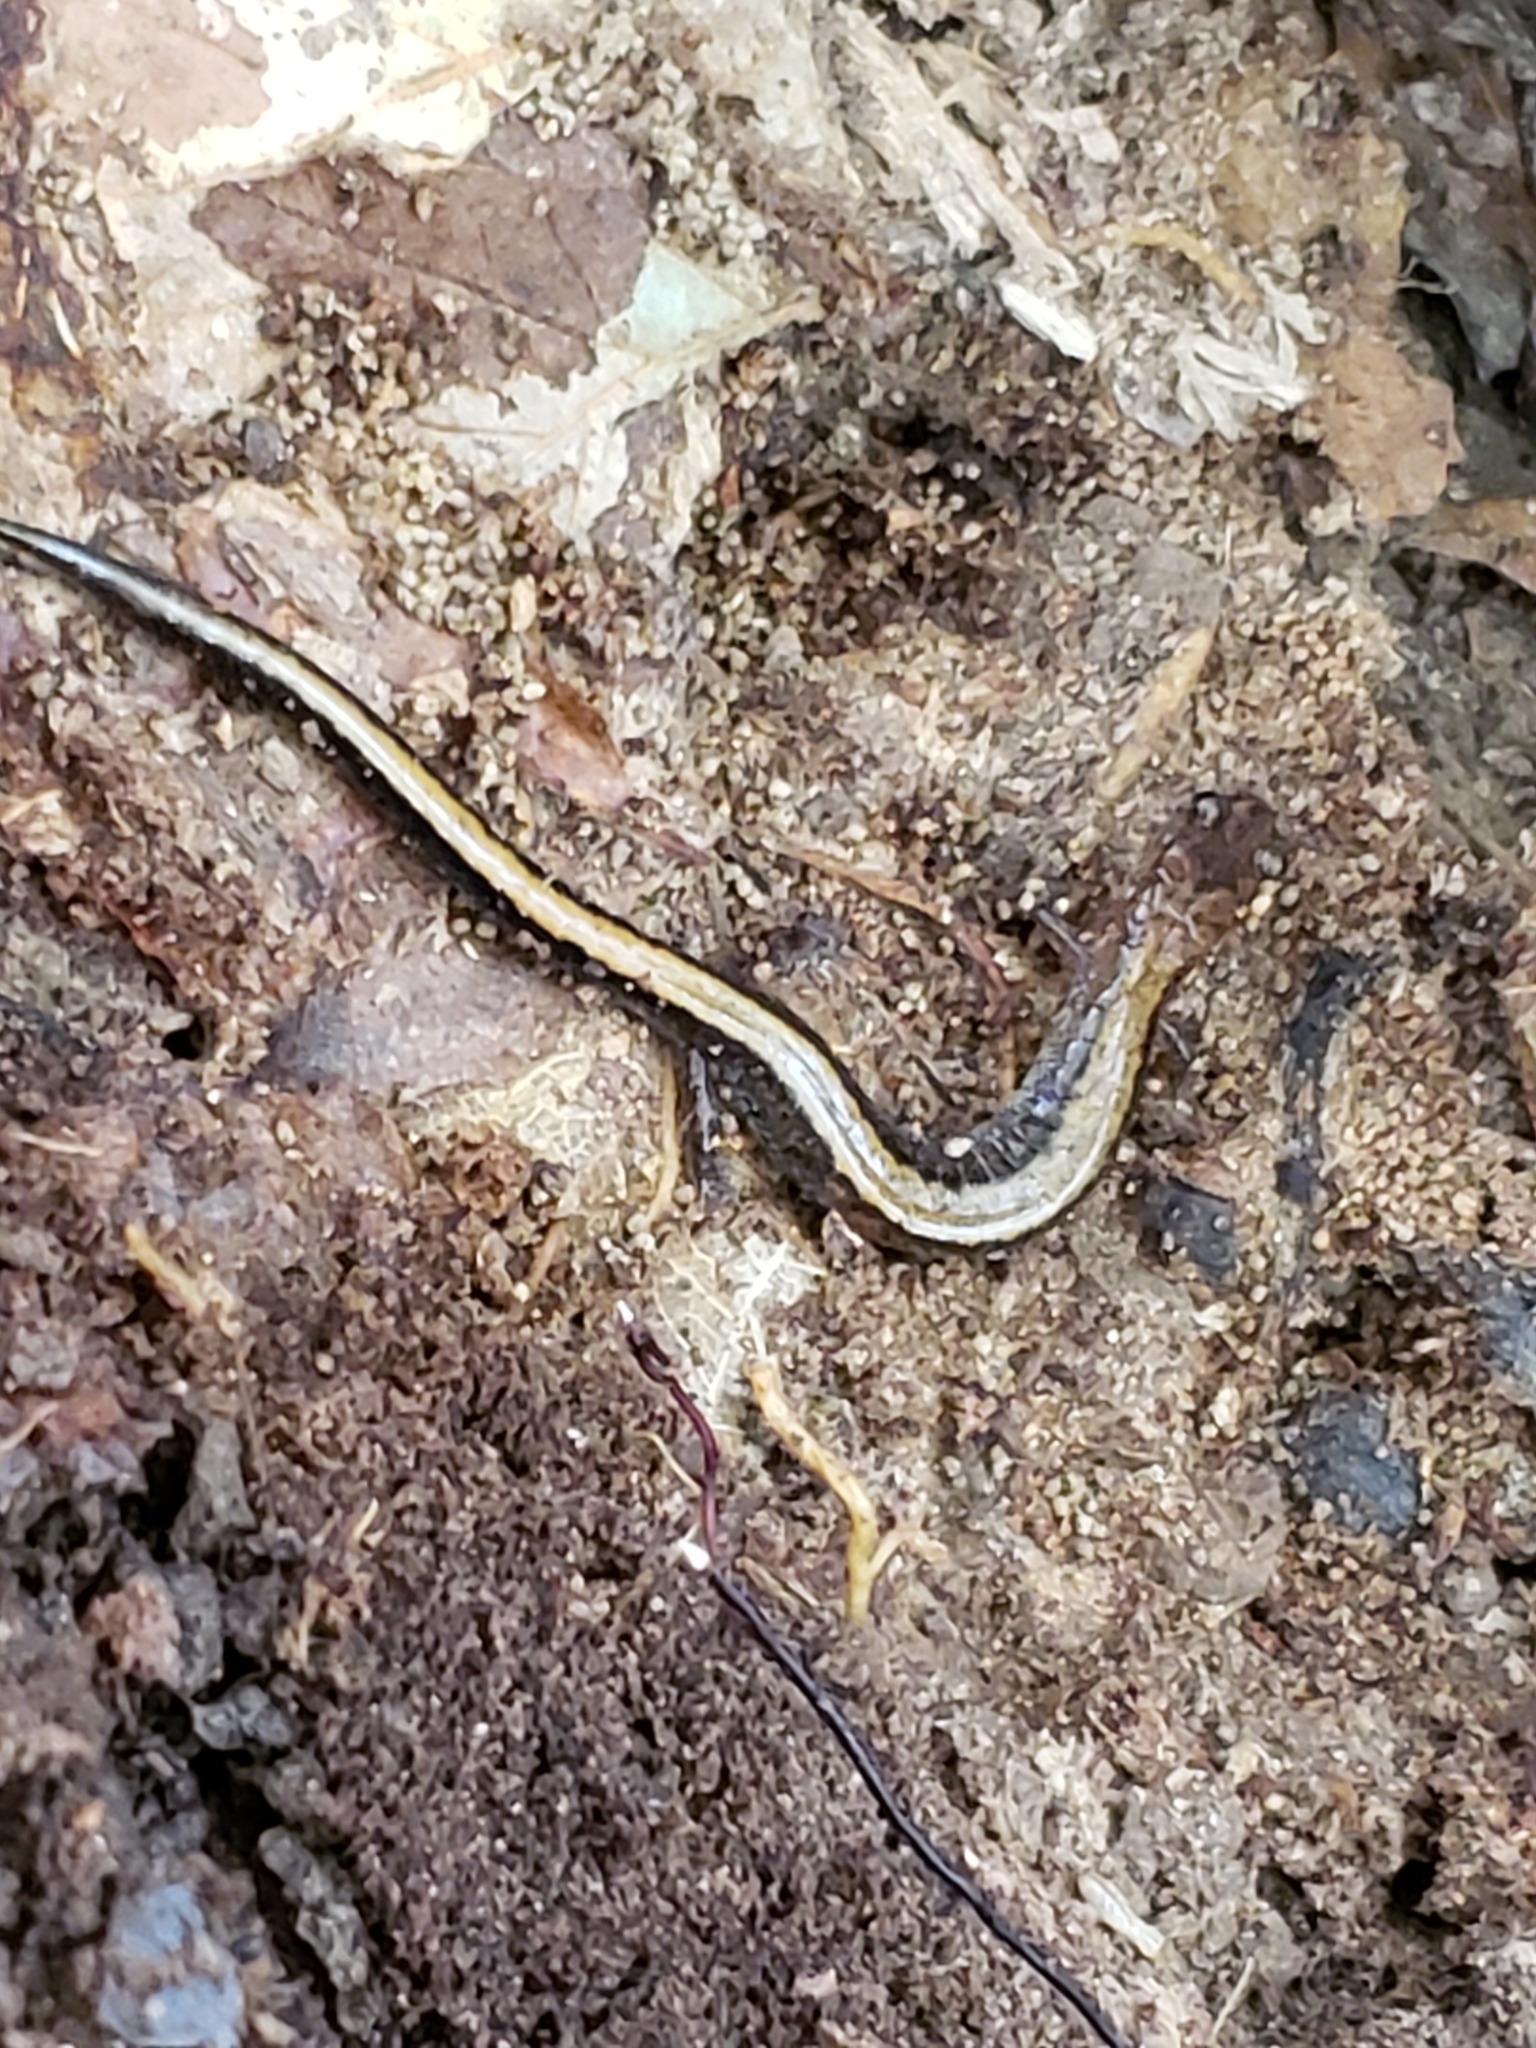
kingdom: Animalia
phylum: Chordata
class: Amphibia
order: Caudata
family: Plethodontidae
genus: Plethodon
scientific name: Plethodon cinereus
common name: Redback salamander
